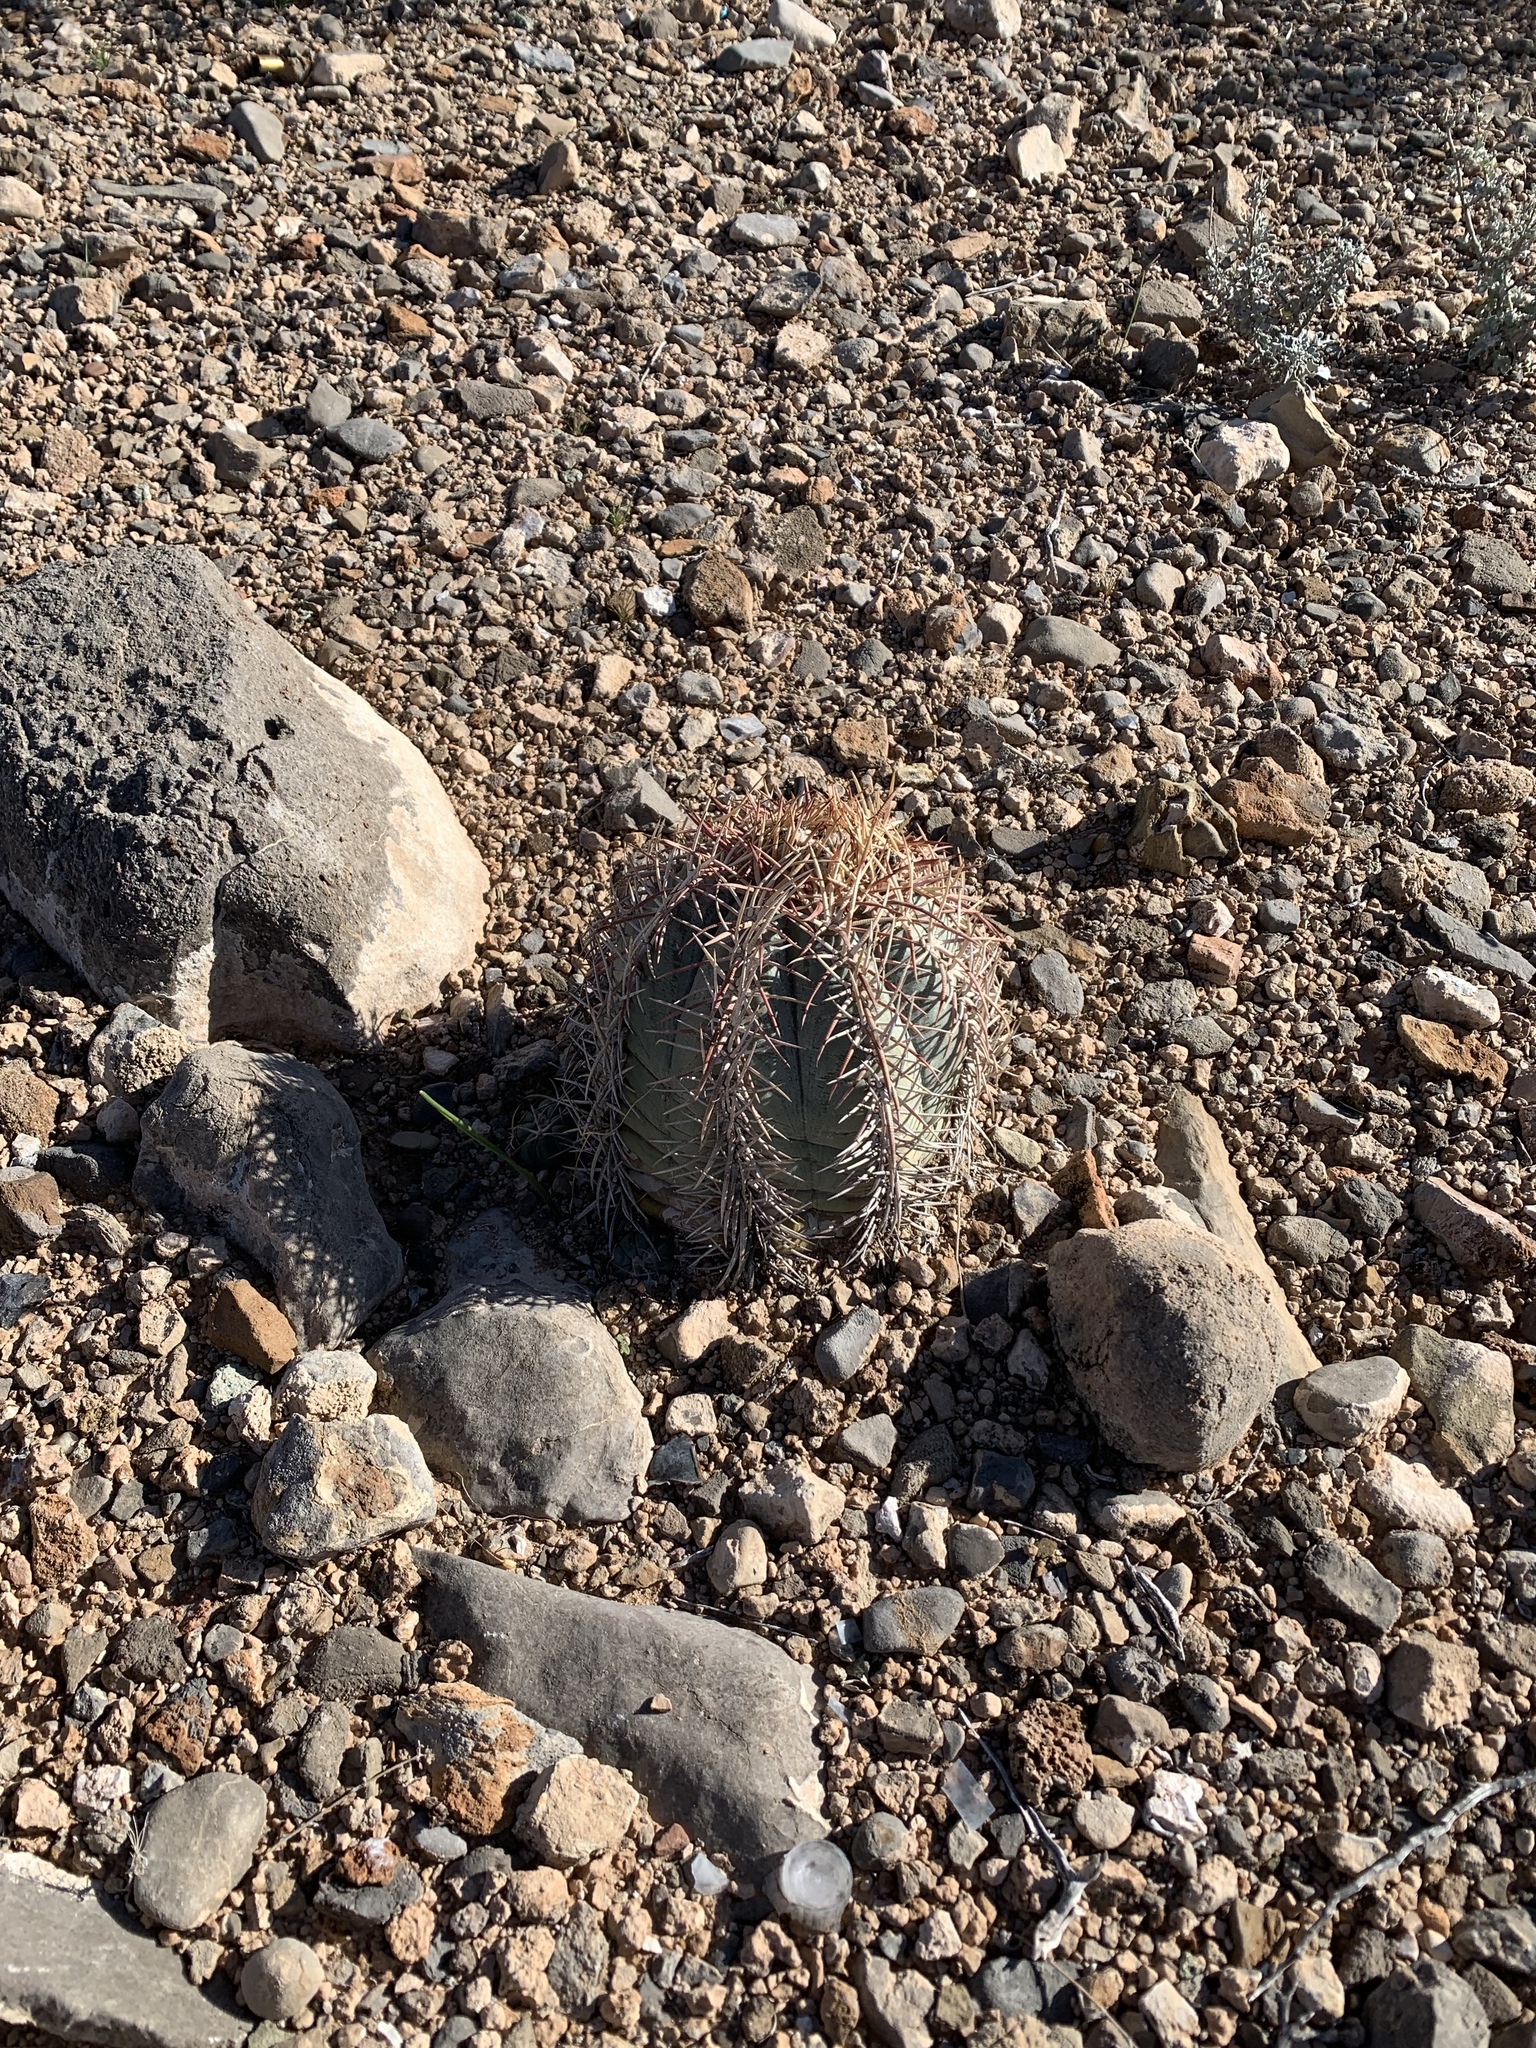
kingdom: Plantae
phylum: Tracheophyta
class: Magnoliopsida
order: Caryophyllales
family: Cactaceae
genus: Echinocactus
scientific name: Echinocactus horizonthalonius
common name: Devilshead
